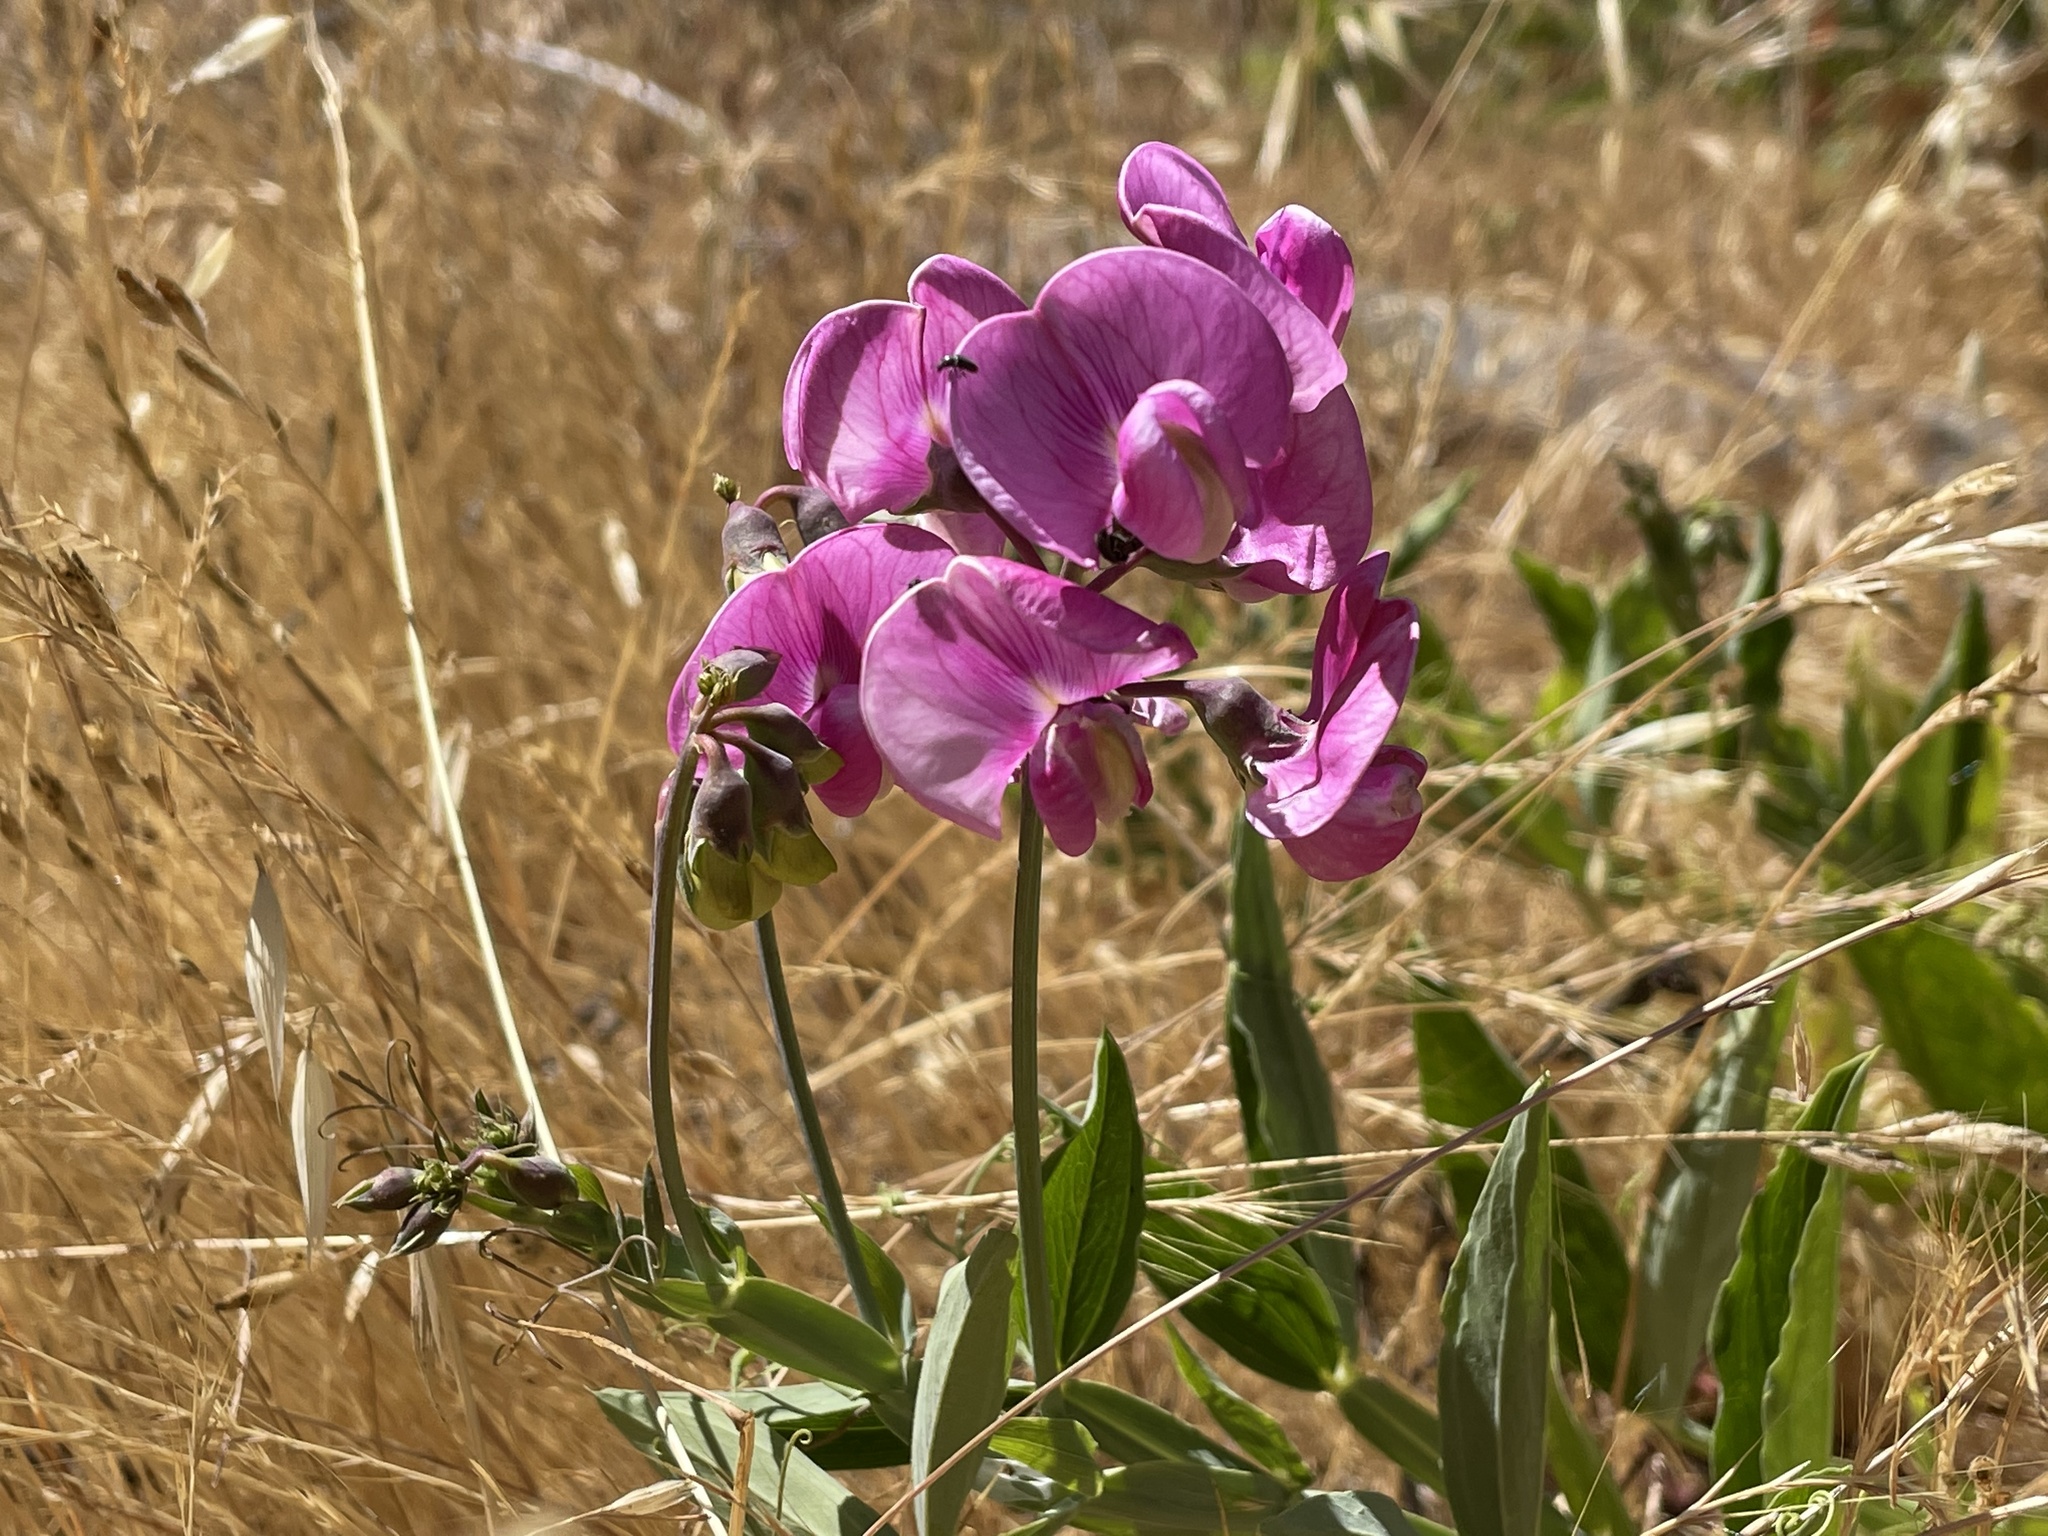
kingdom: Plantae
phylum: Tracheophyta
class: Magnoliopsida
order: Fabales
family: Fabaceae
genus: Lathyrus
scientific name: Lathyrus latifolius
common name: Perennial pea
